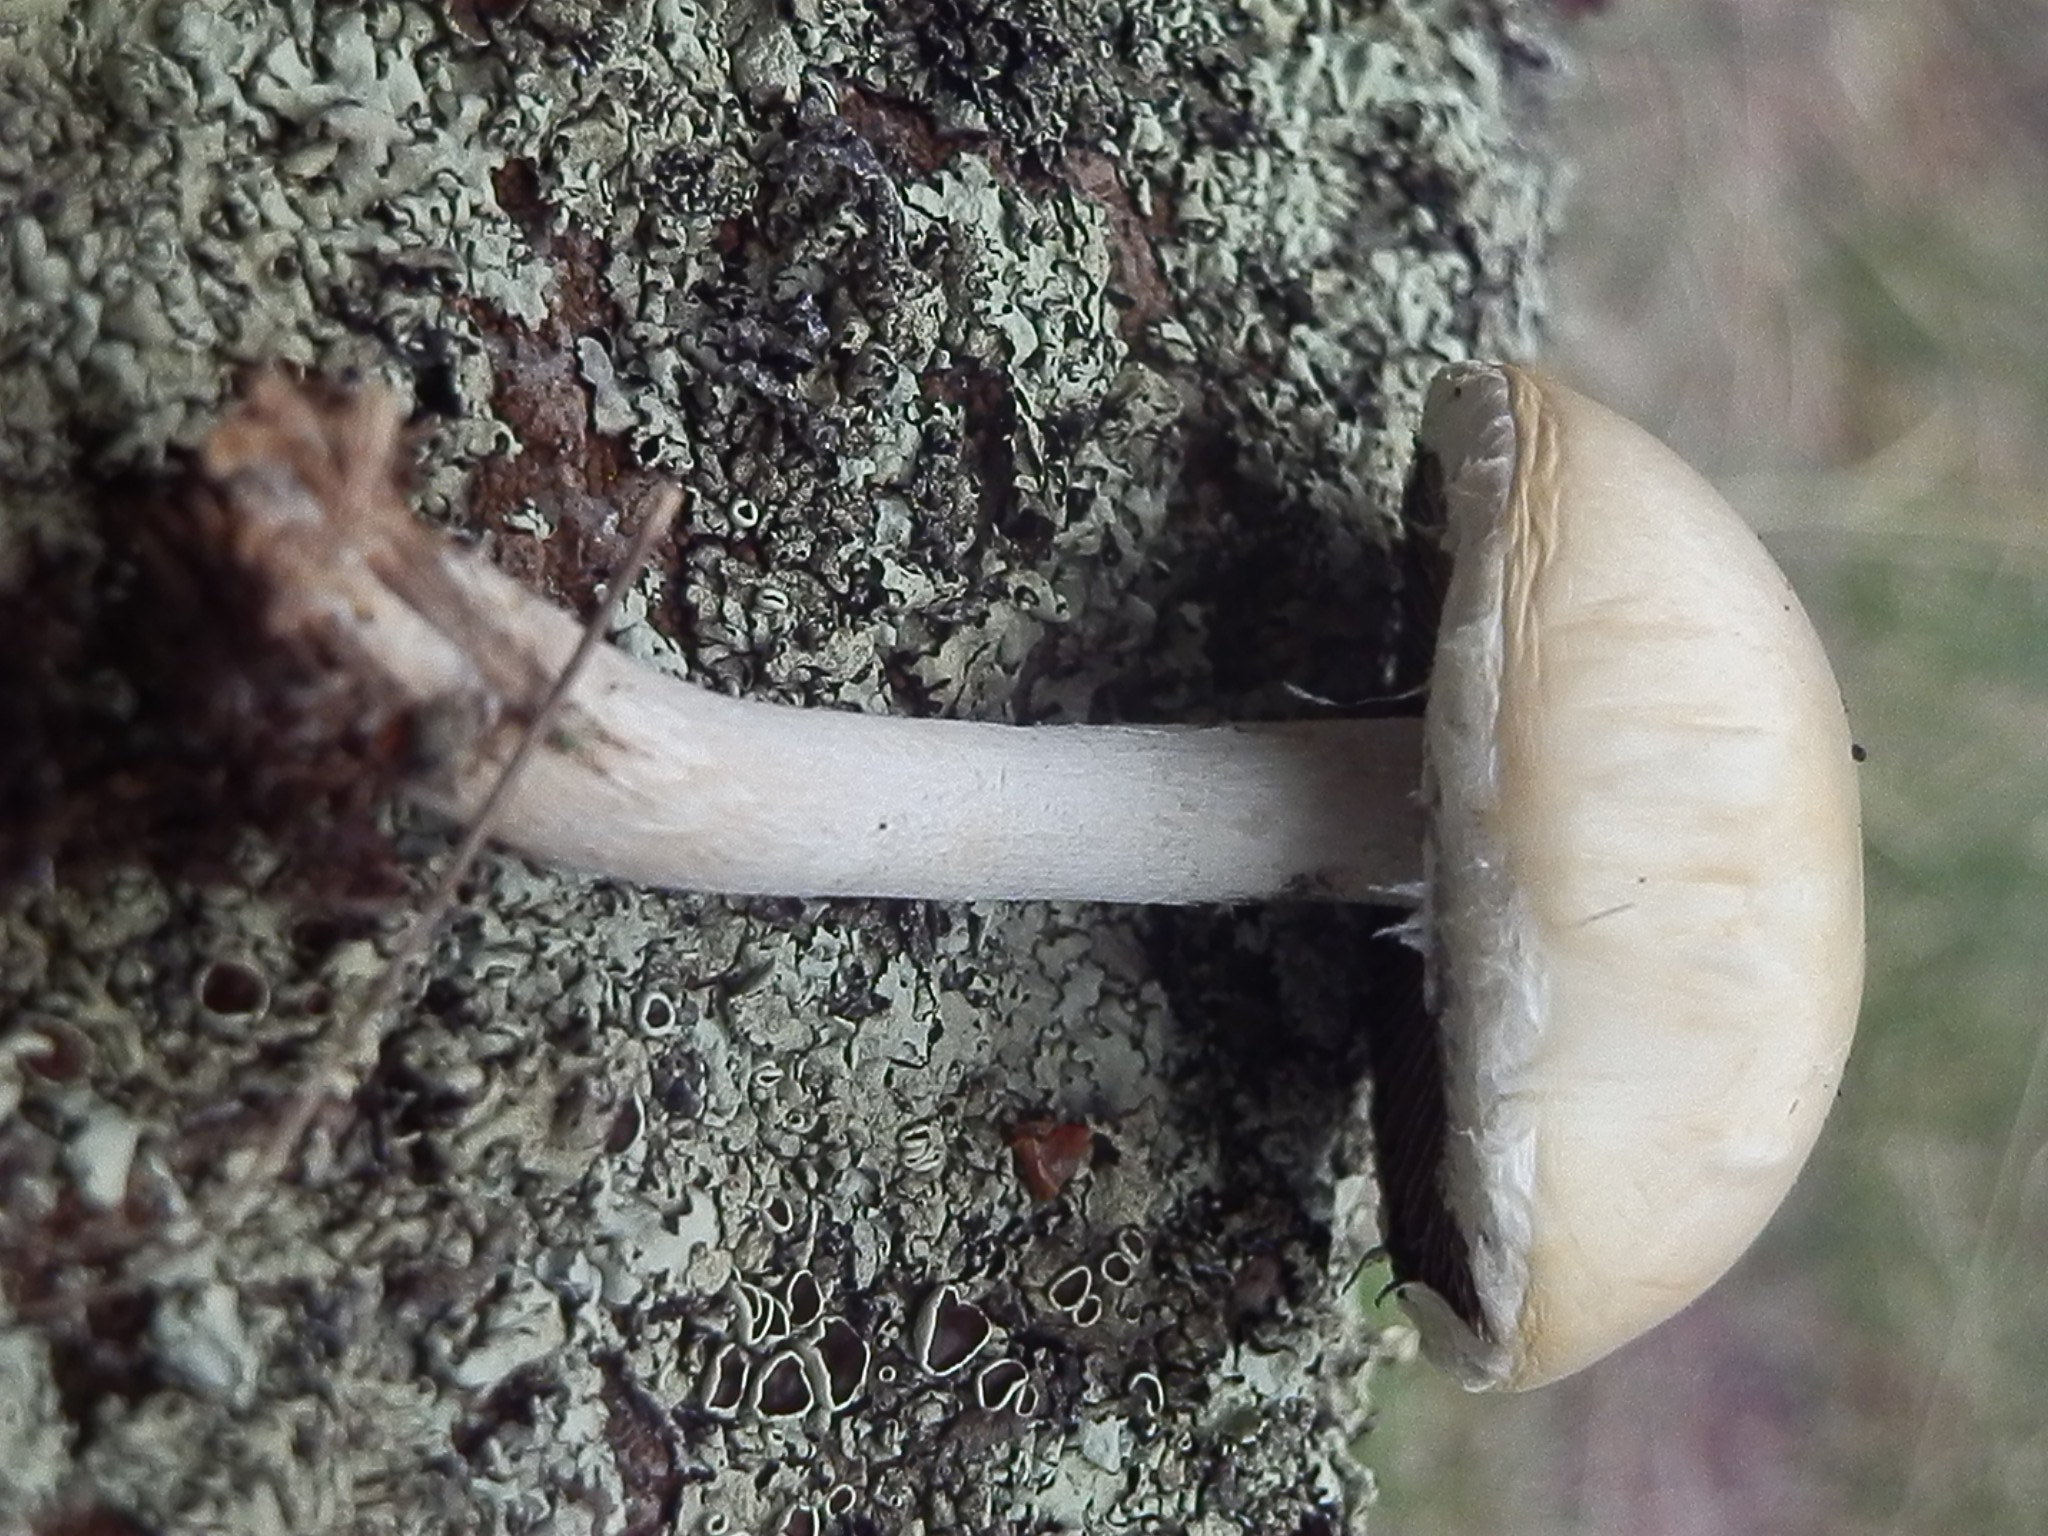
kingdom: Fungi
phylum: Basidiomycota
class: Agaricomycetes
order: Agaricales
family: Strophariaceae
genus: Stropharia
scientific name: Stropharia ambigua
